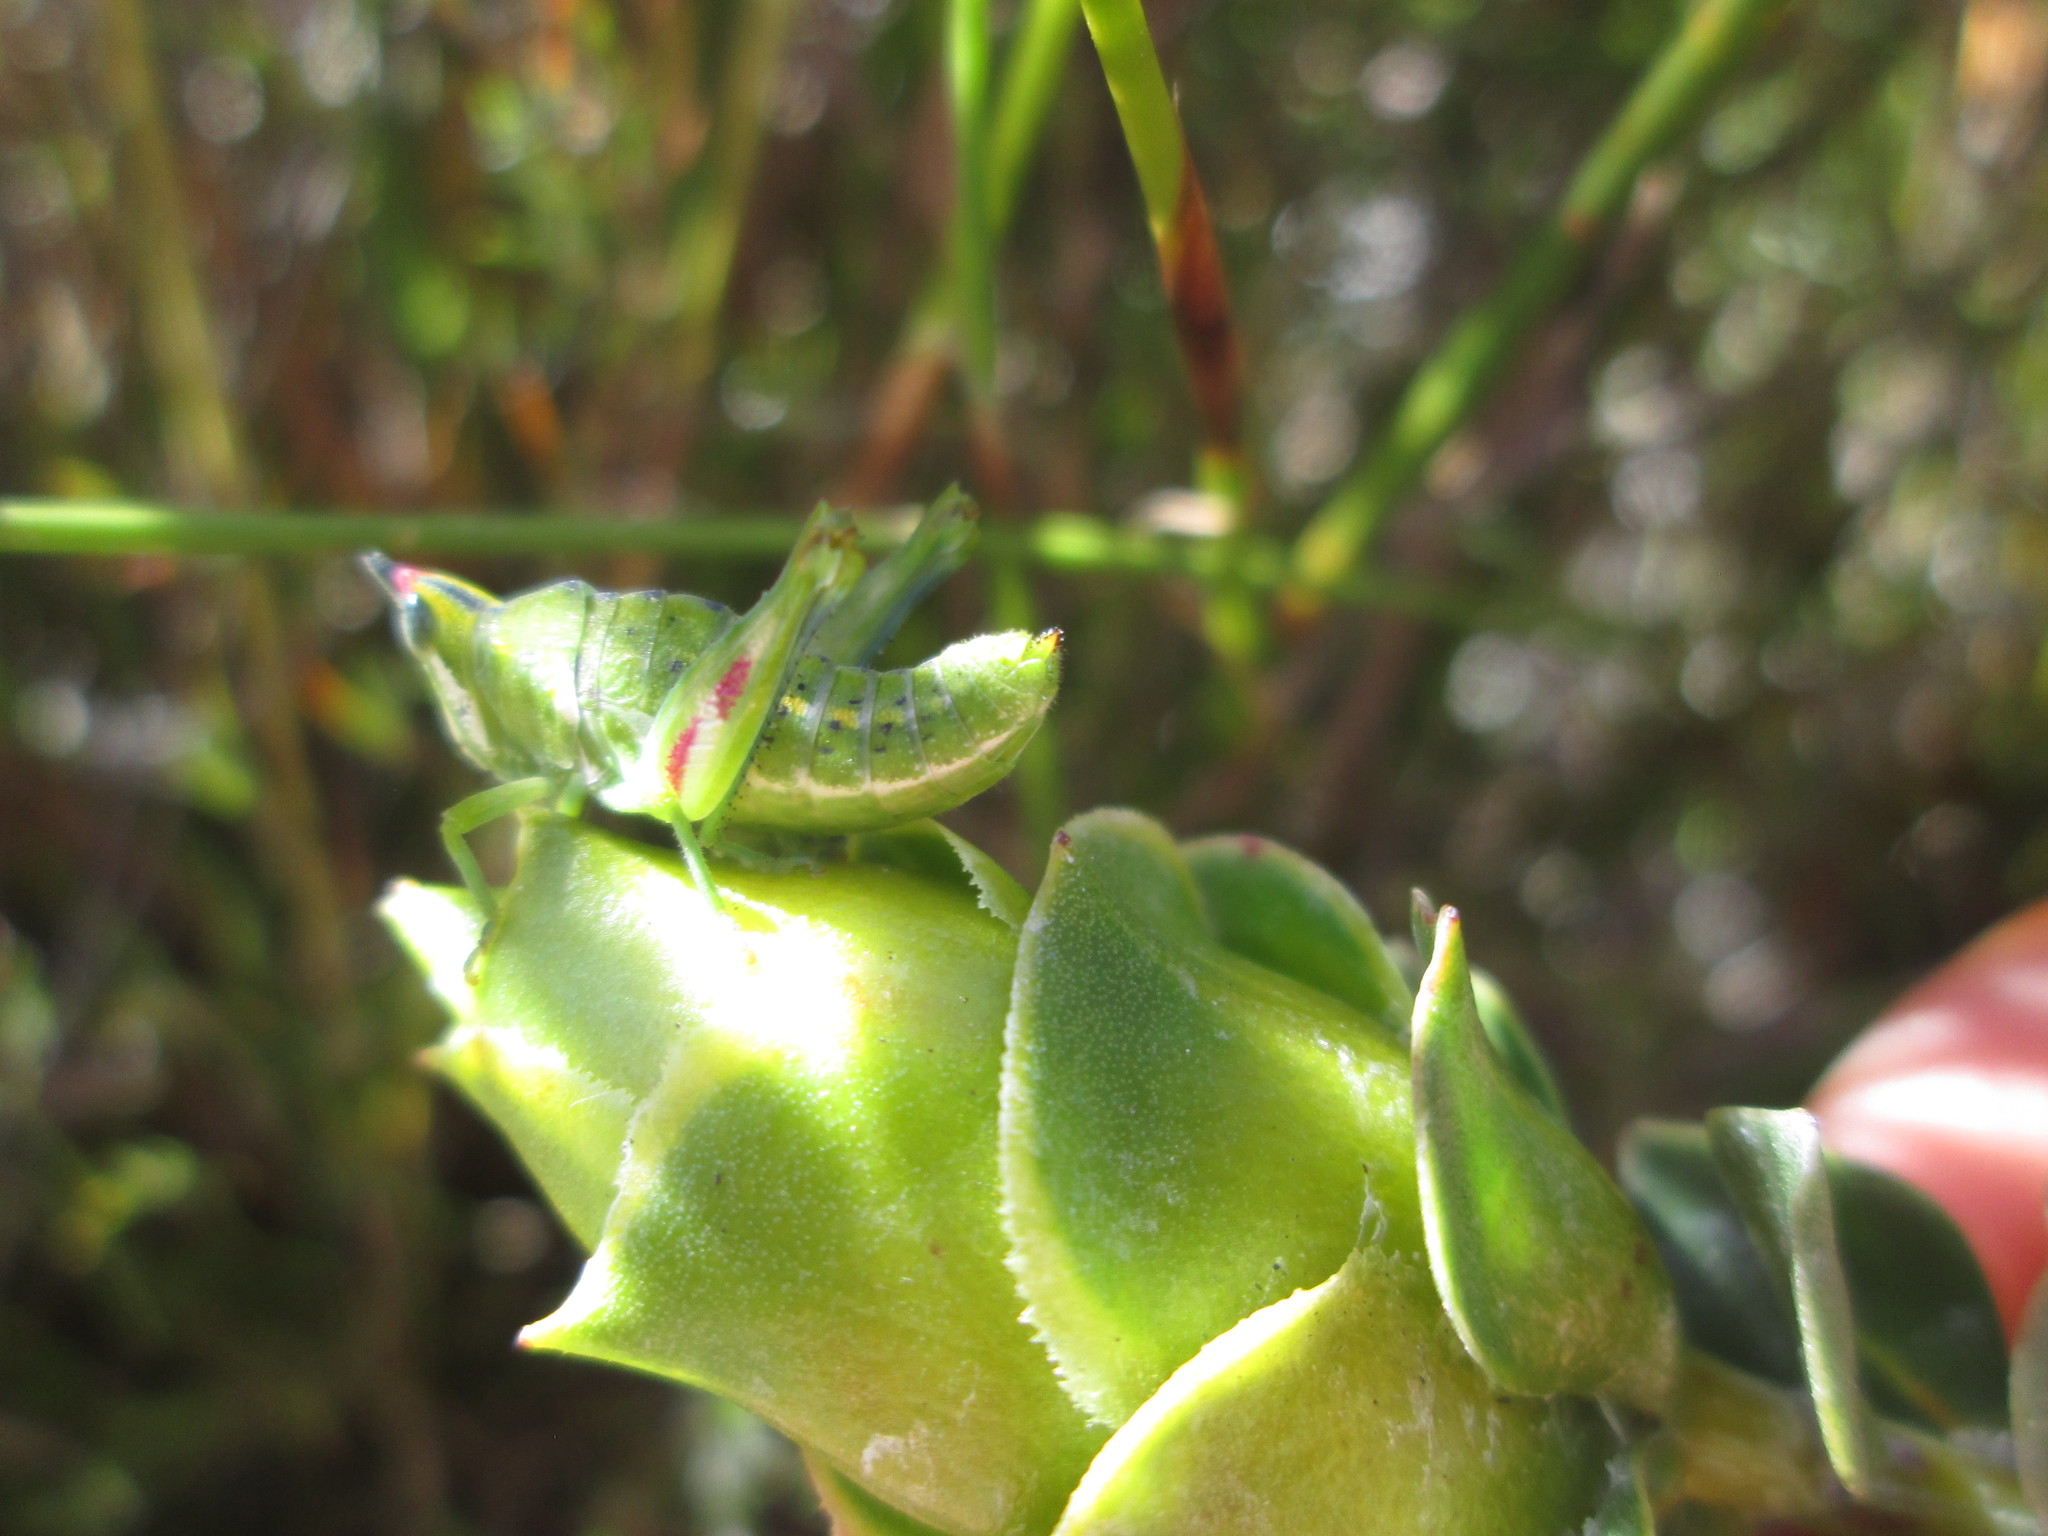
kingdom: Animalia
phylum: Arthropoda
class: Insecta
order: Orthoptera
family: Thericleidae
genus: Thericlesiella
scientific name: Thericlesiella meridionalis
